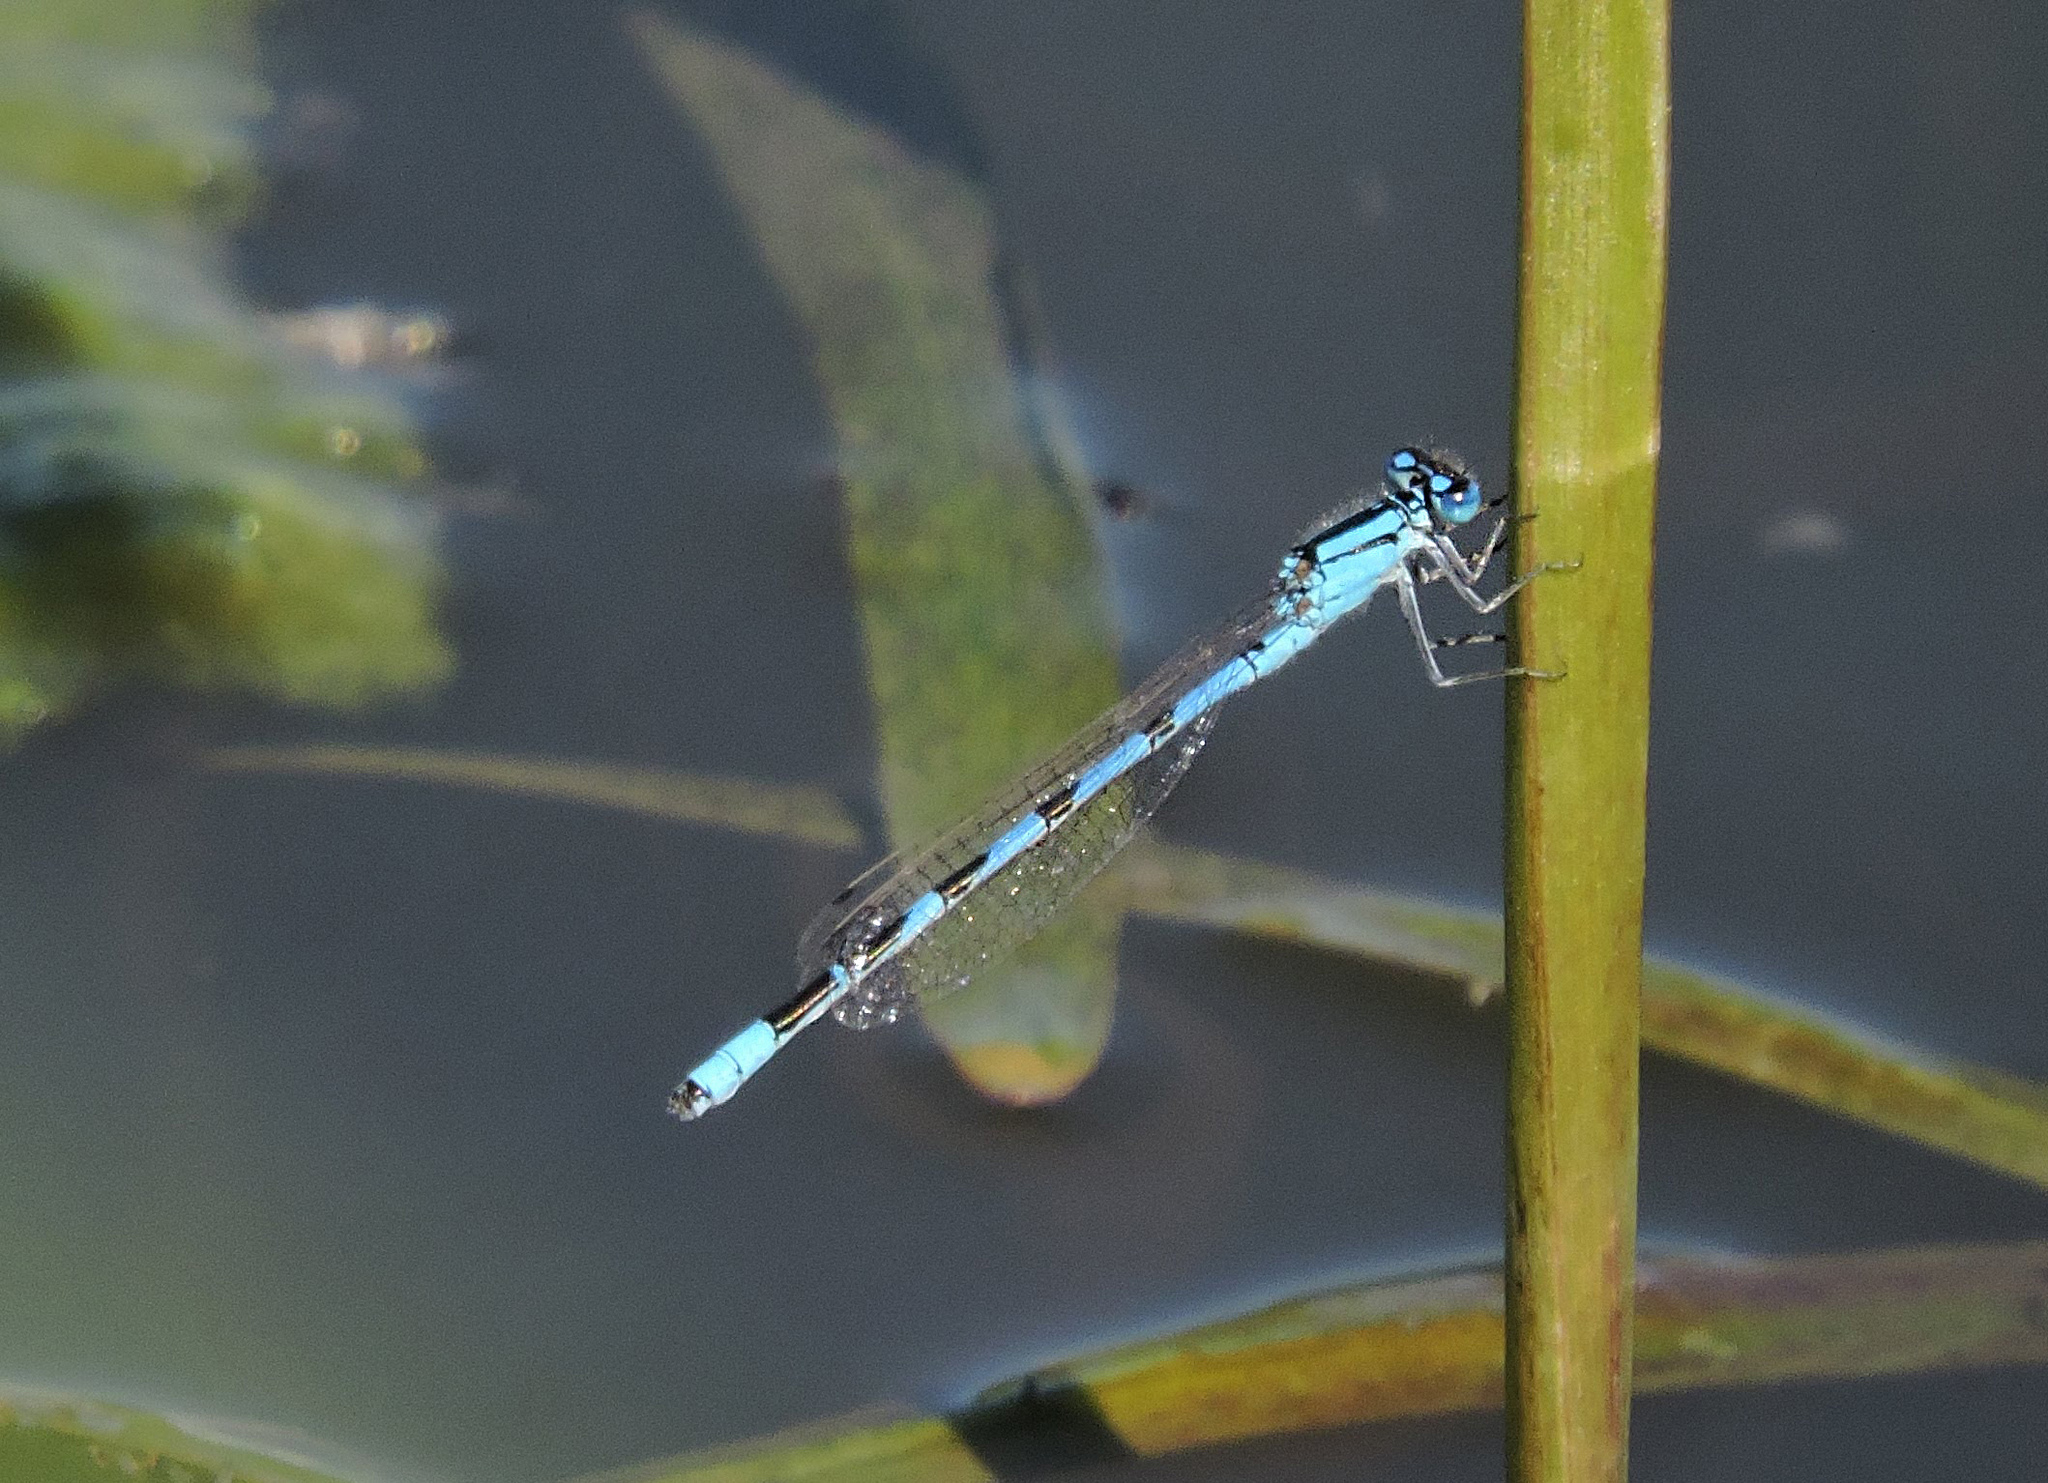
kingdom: Animalia
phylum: Arthropoda
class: Insecta
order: Odonata
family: Coenagrionidae
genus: Enallagma
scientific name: Enallagma cyathigerum
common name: Common blue damselfly
